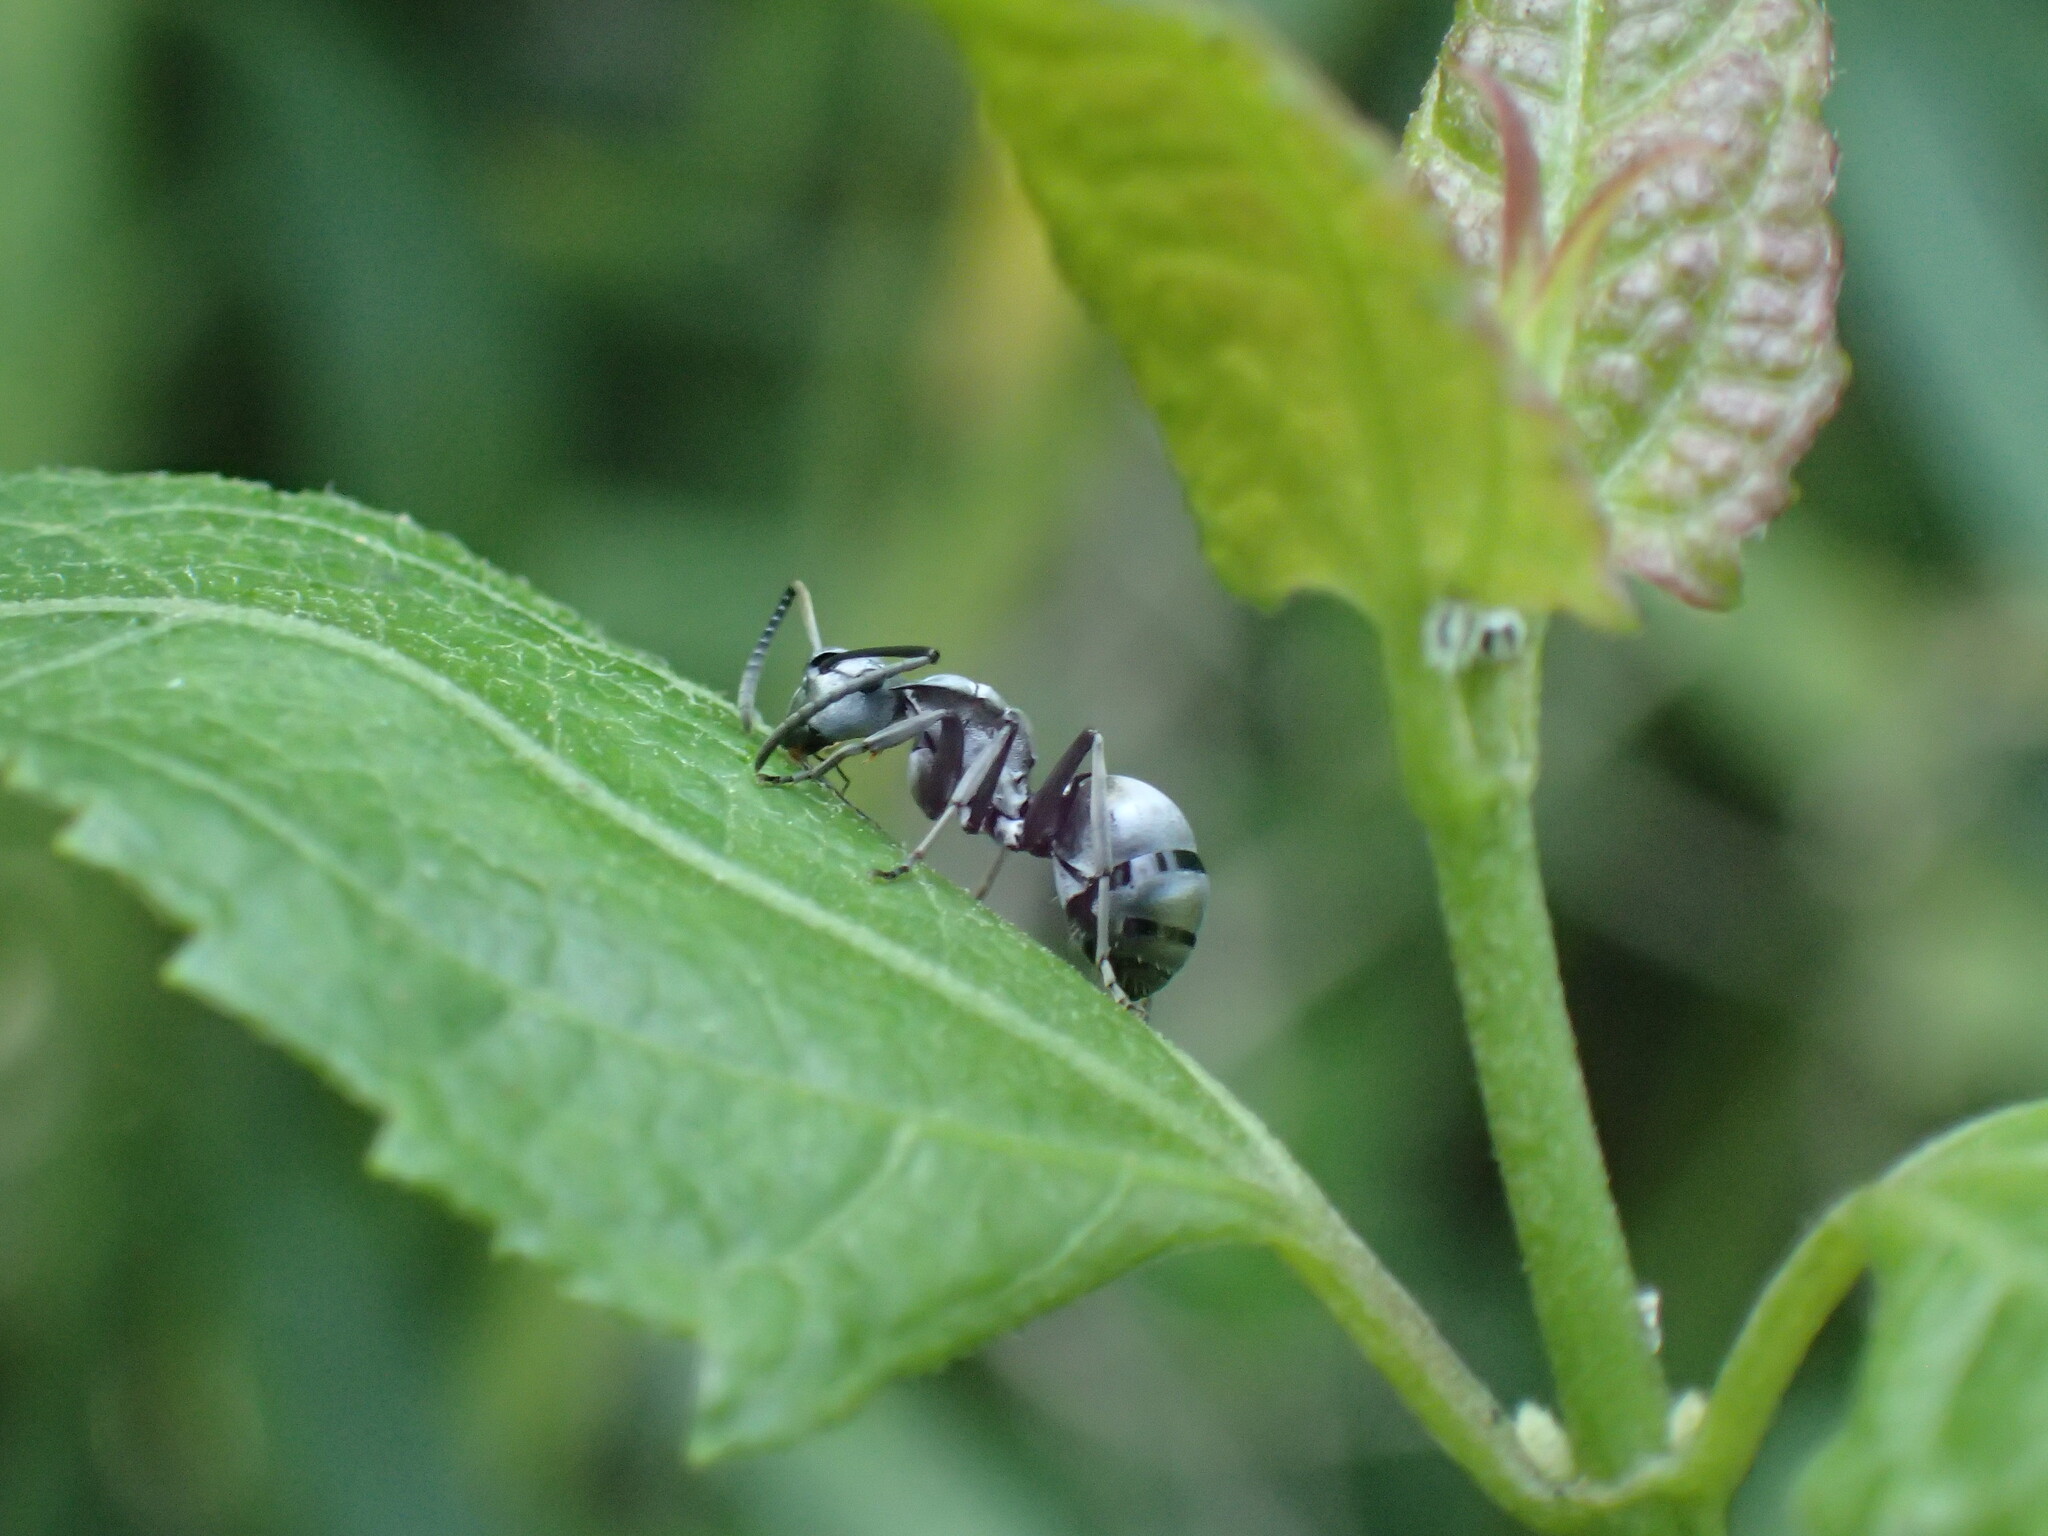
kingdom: Animalia
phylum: Arthropoda
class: Insecta
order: Hymenoptera
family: Formicidae
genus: Polyrhachis
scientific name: Polyrhachis schlueteri
